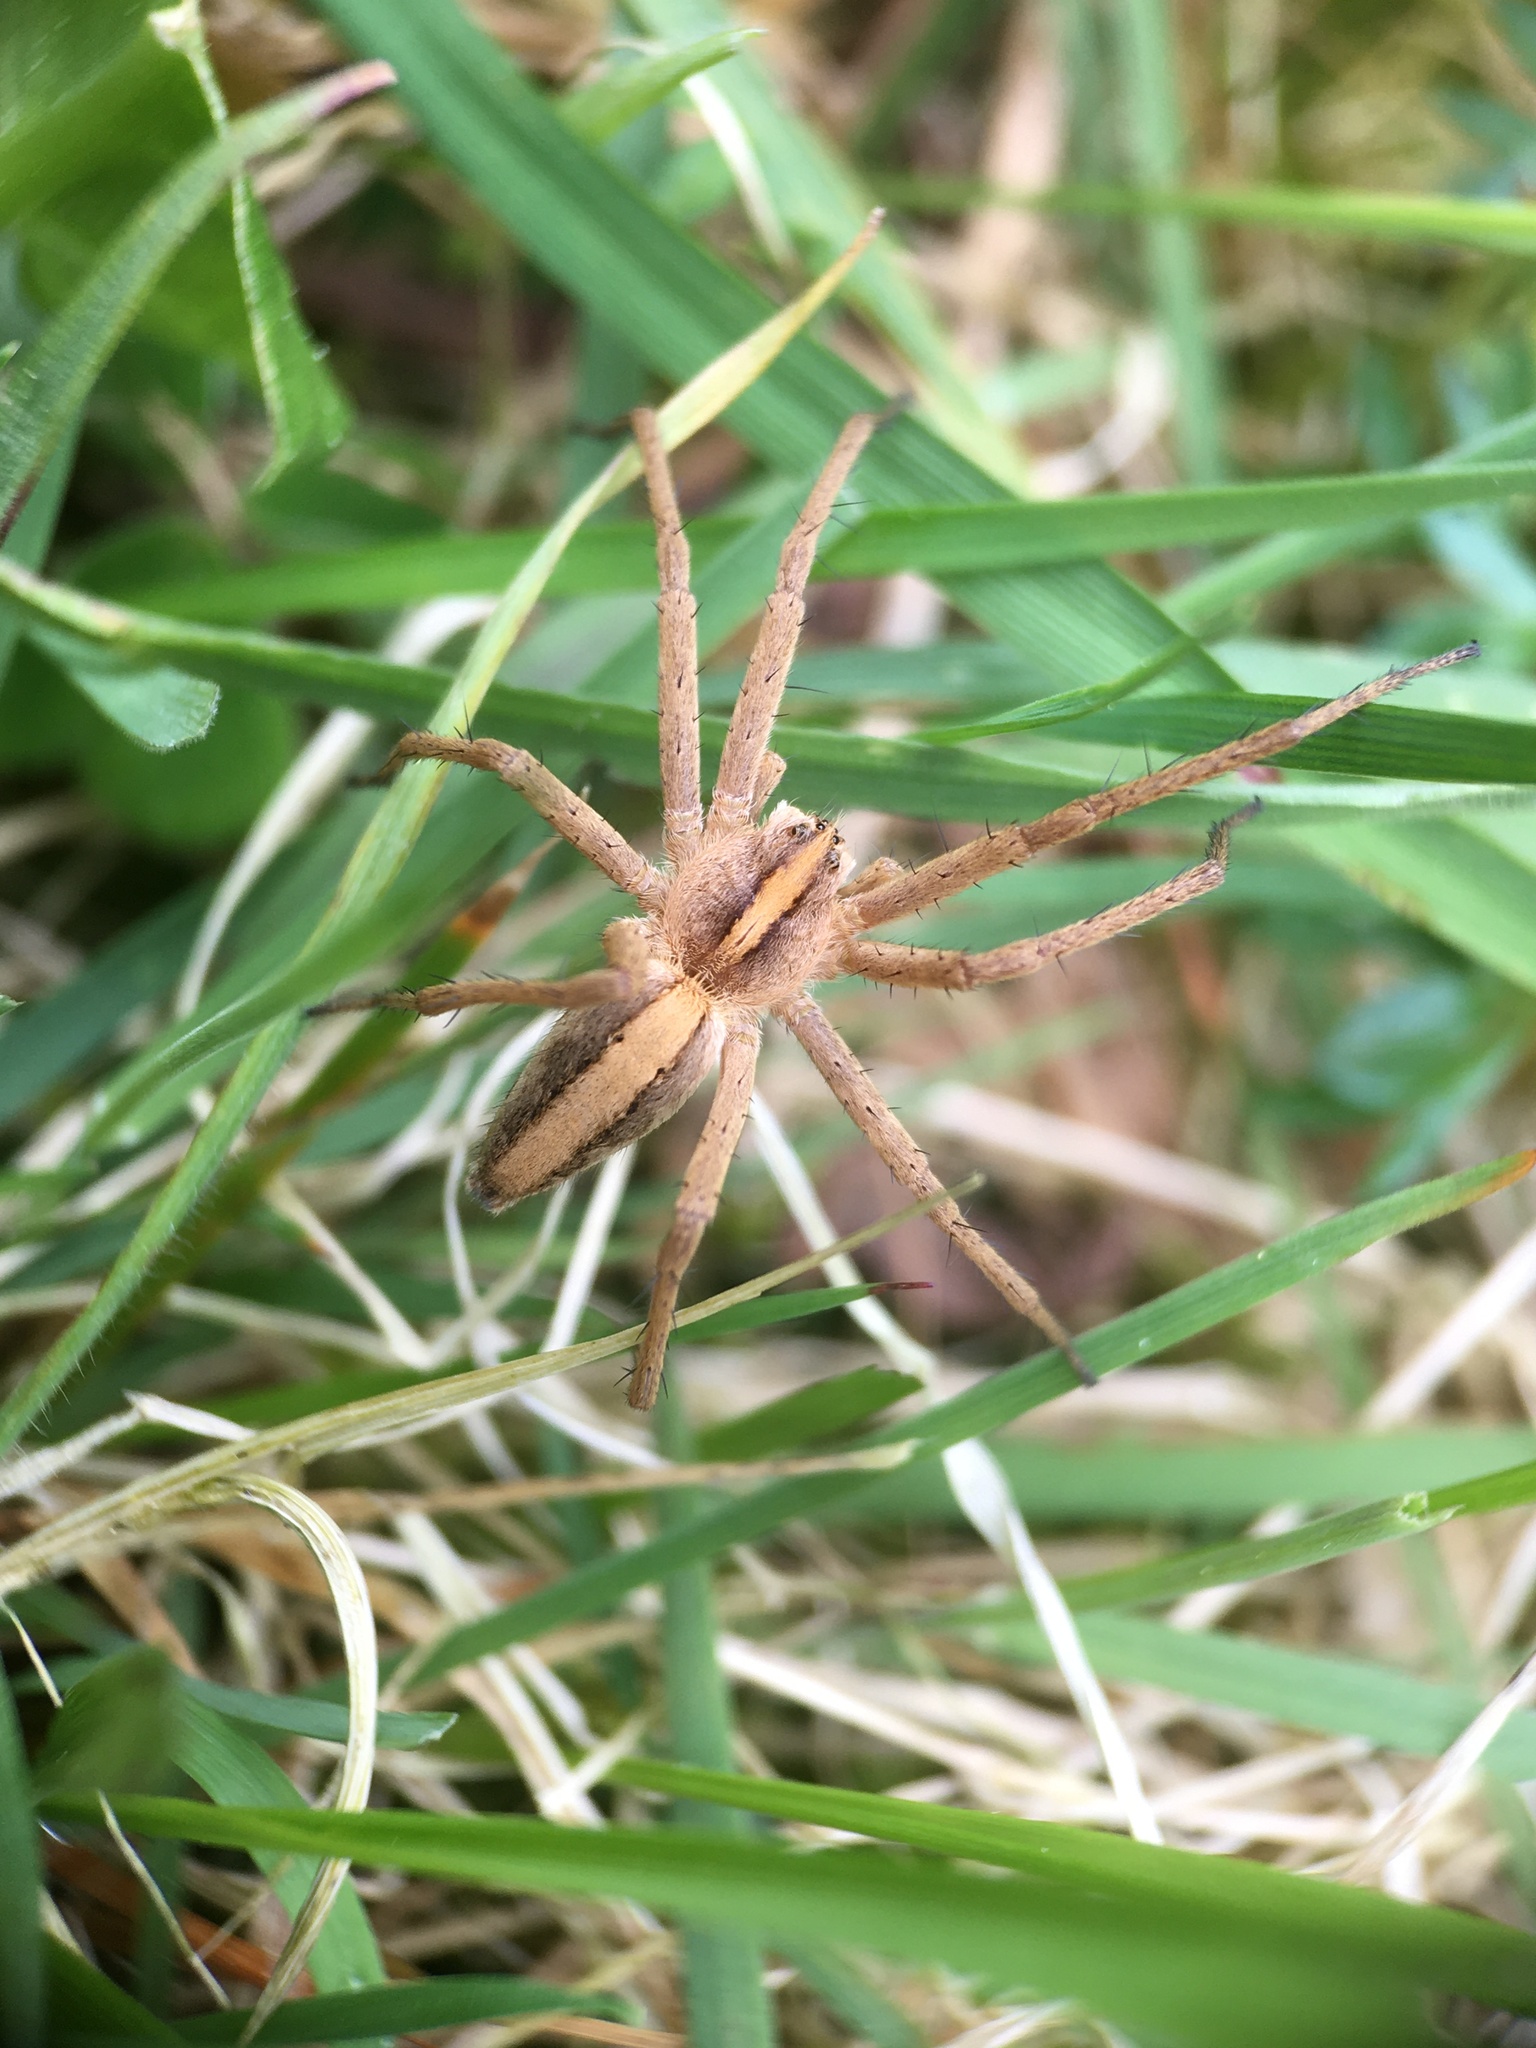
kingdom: Animalia
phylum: Arthropoda
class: Arachnida
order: Araneae
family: Pisauridae
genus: Pisaura
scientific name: Pisaura mirabilis
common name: Tent spider
